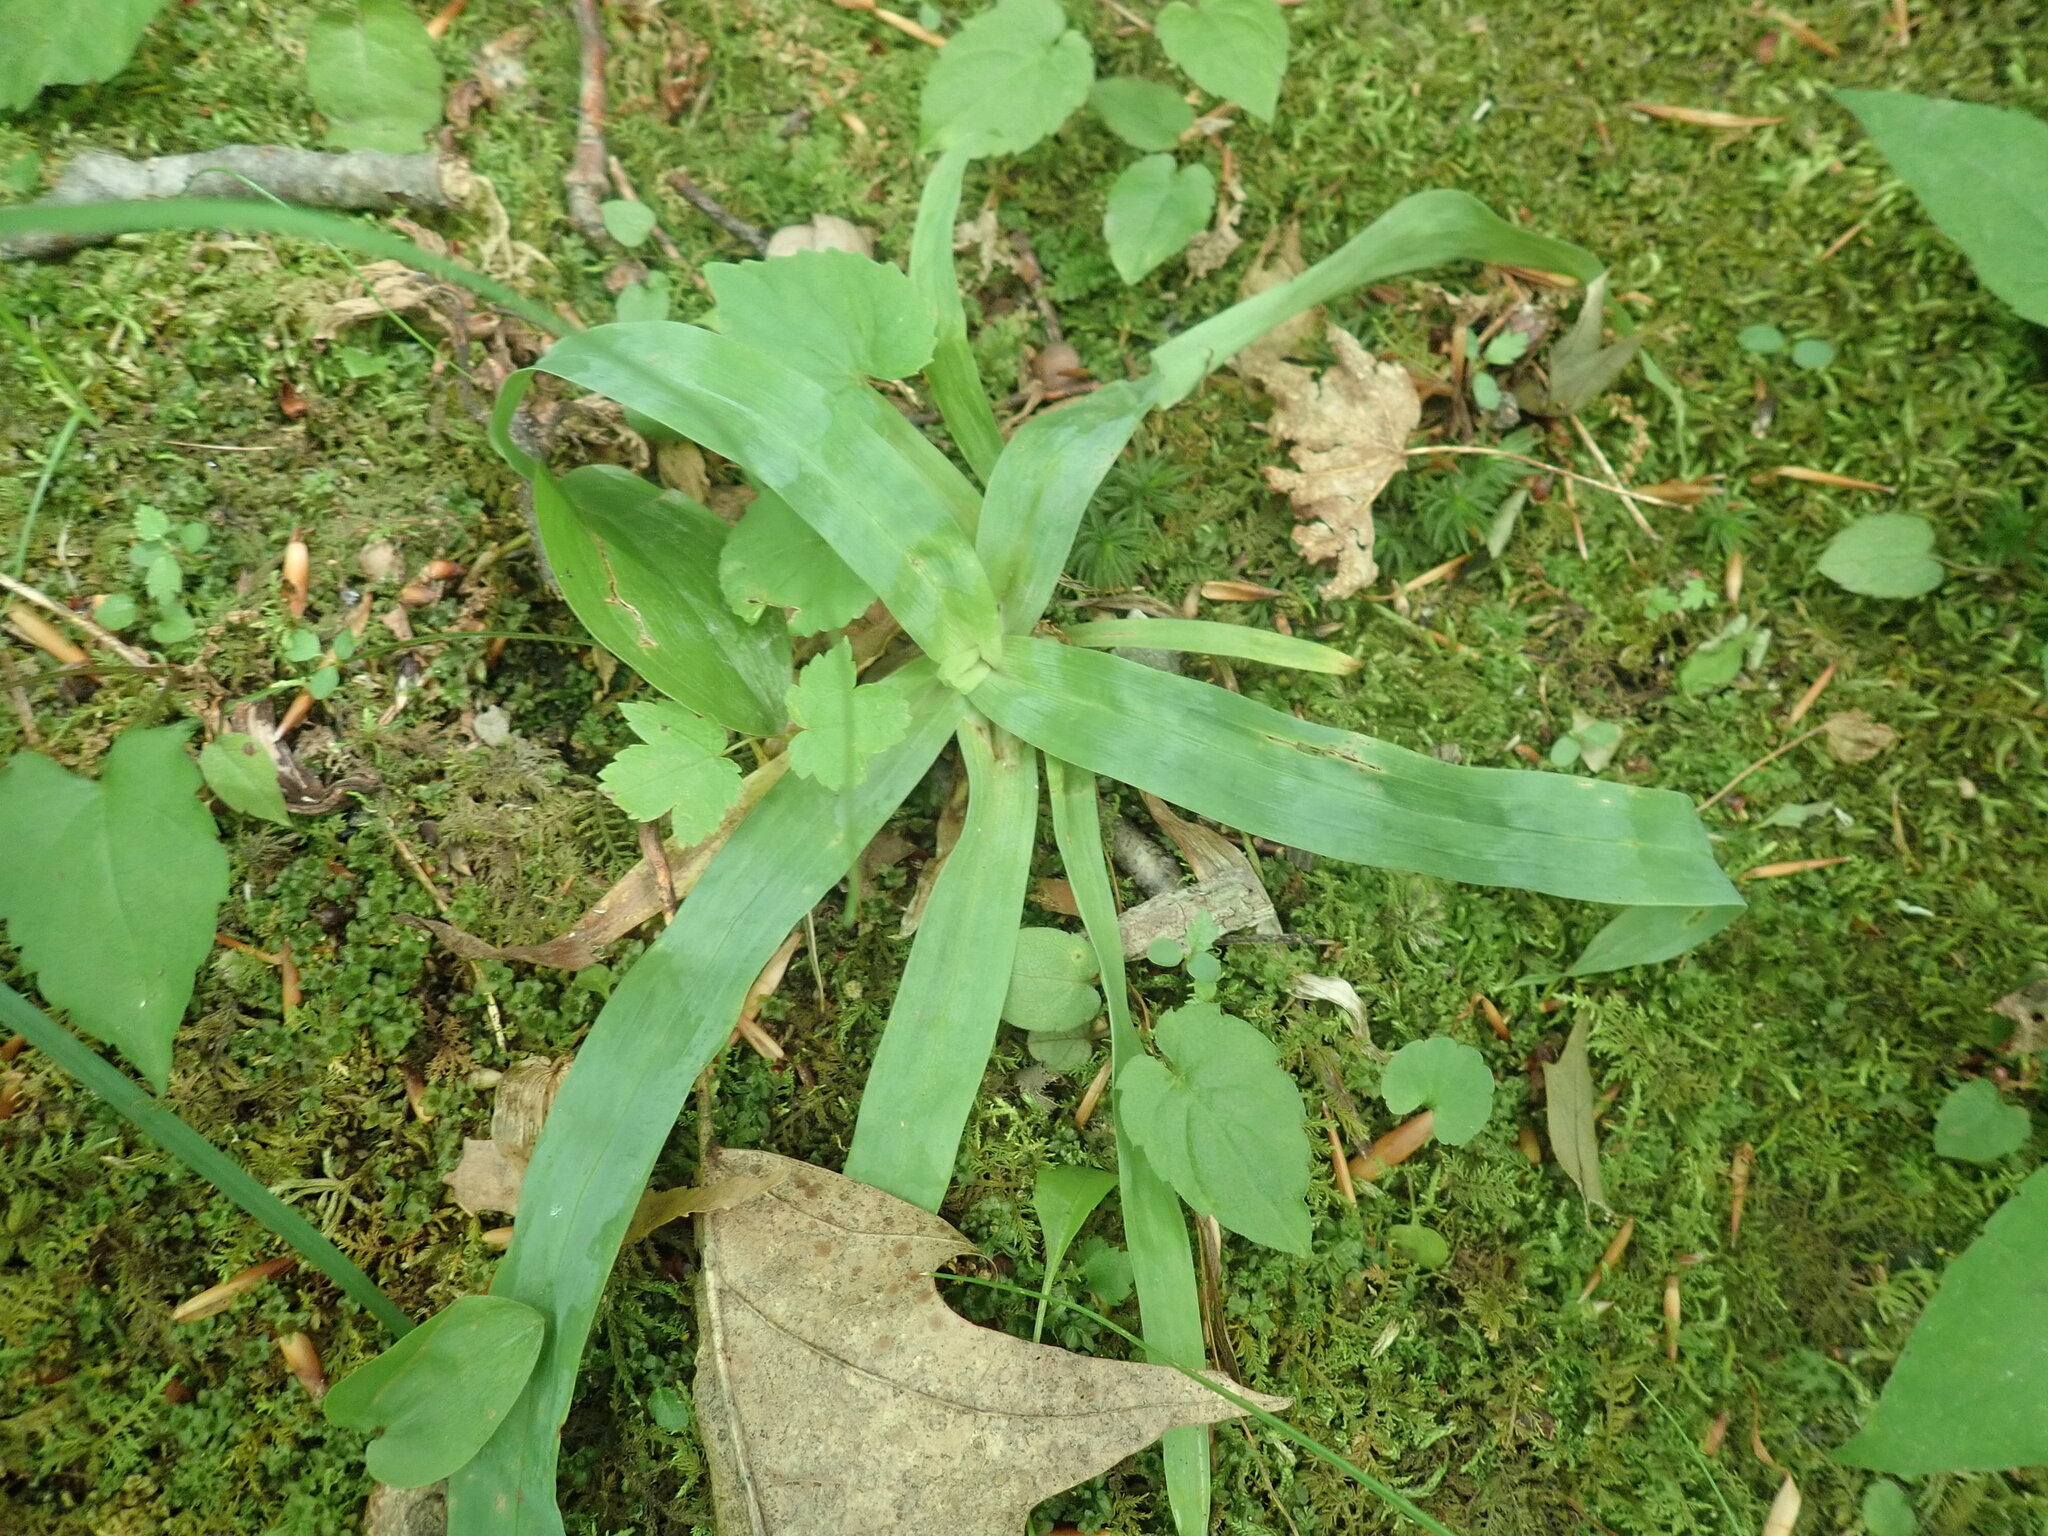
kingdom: Plantae
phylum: Tracheophyta
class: Liliopsida
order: Poales
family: Cyperaceae
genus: Carex
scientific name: Carex platyphylla
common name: Broad-leaved sedge
